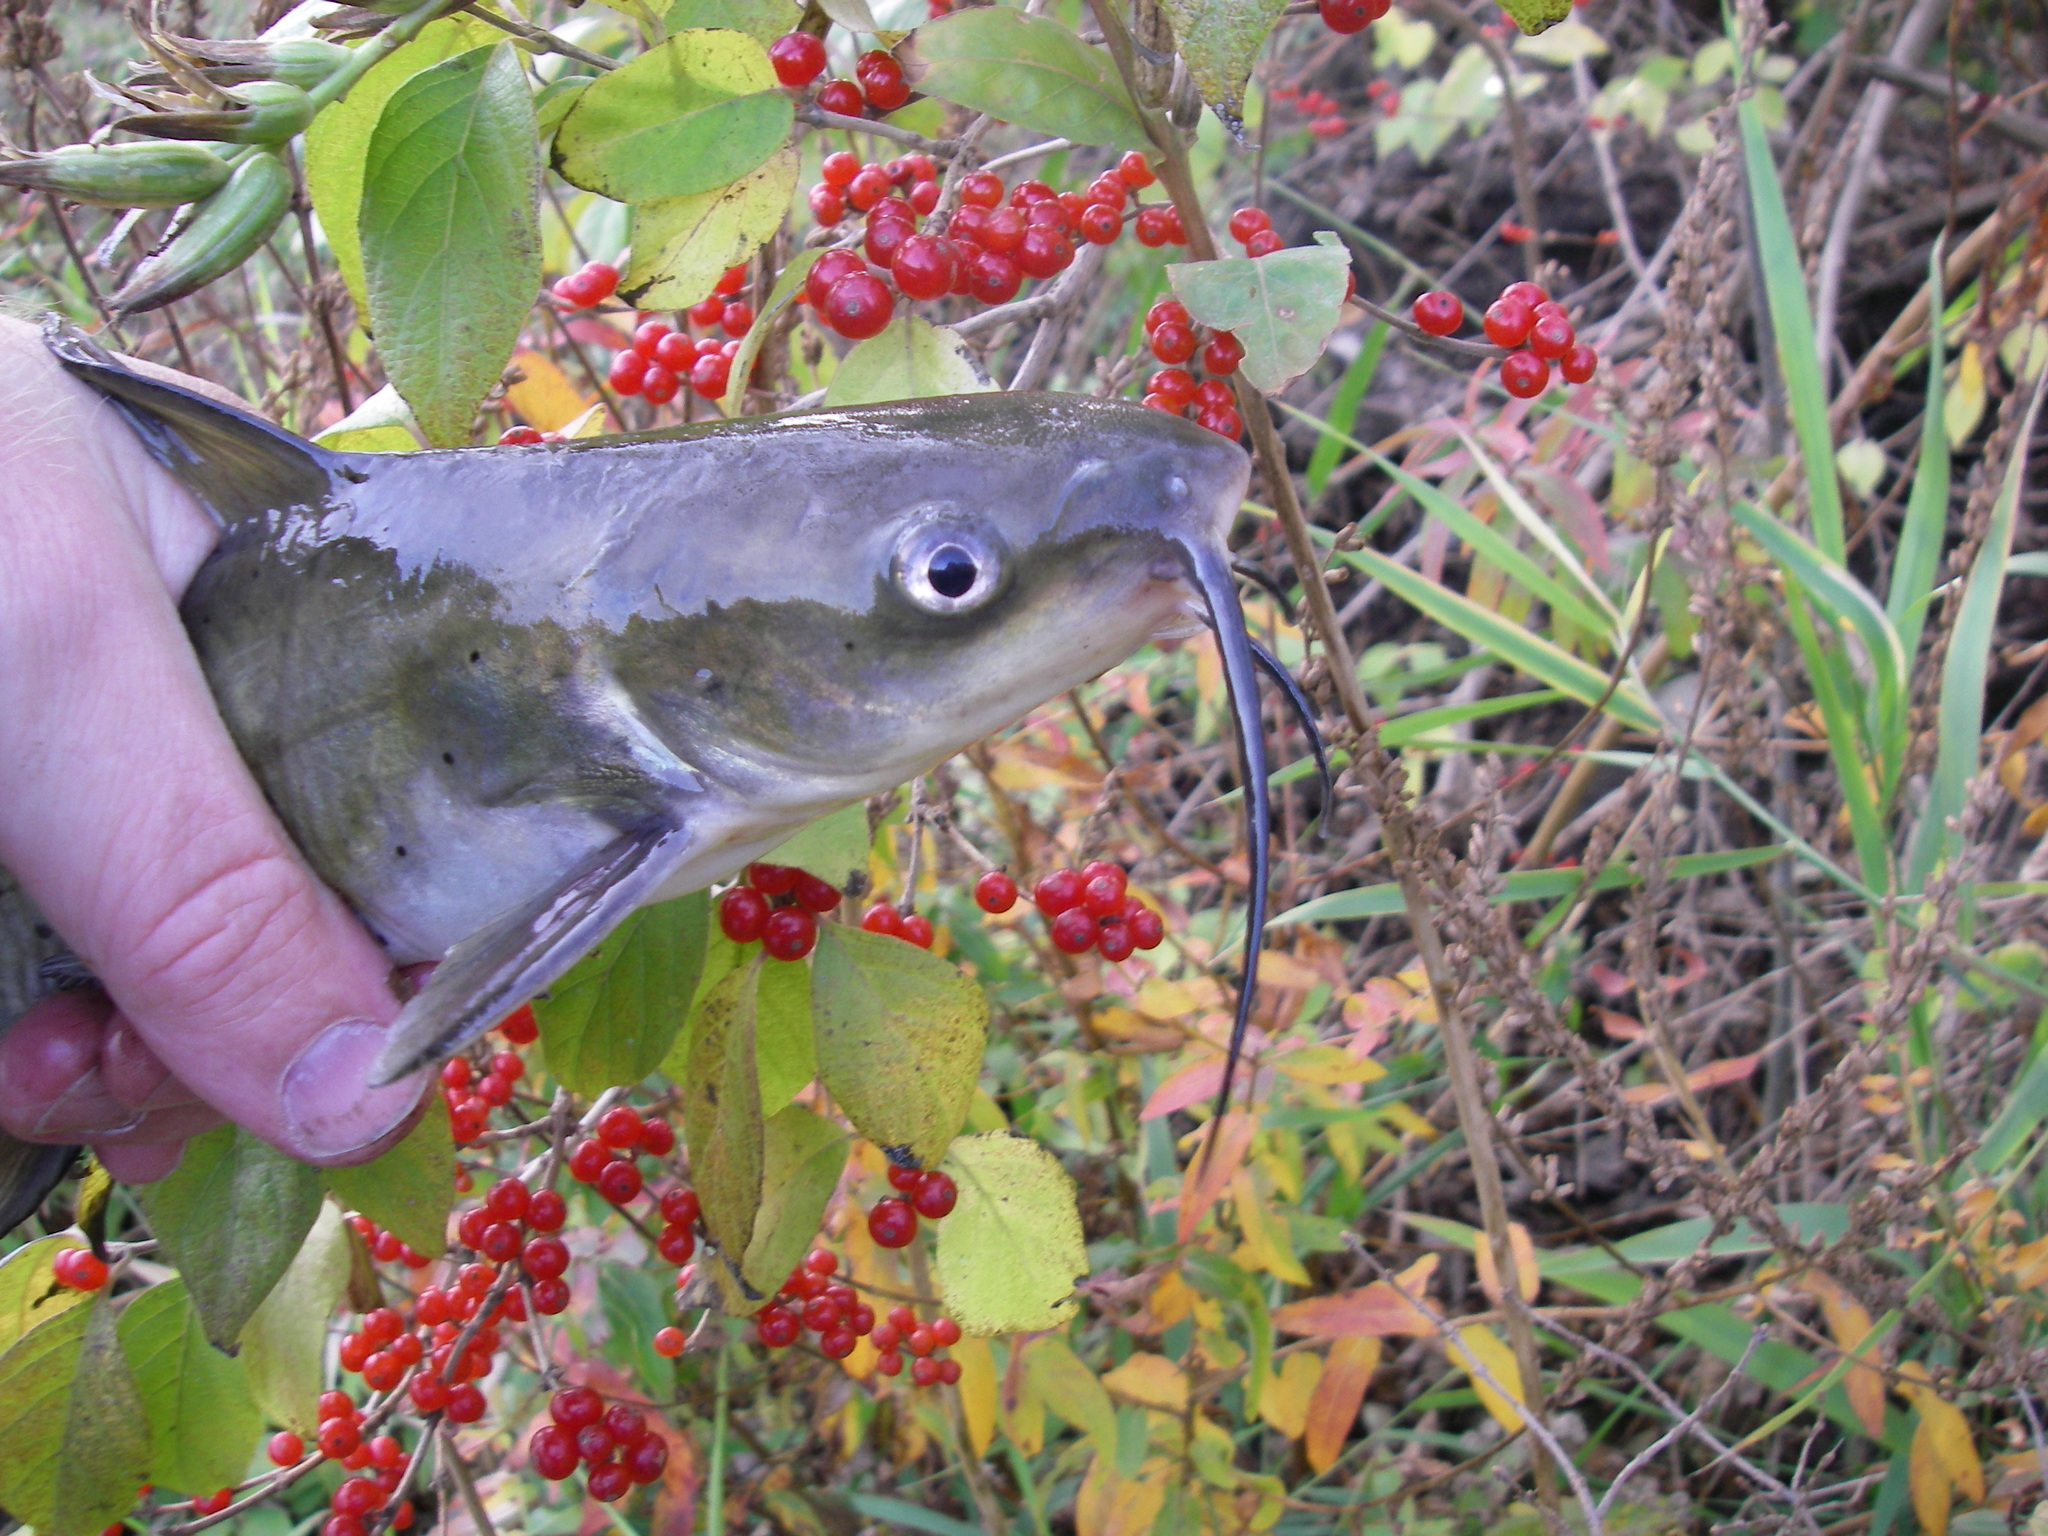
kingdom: Animalia
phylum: Chordata
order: Siluriformes
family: Ictaluridae
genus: Ictalurus
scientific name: Ictalurus punctatus
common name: Channel catfish
